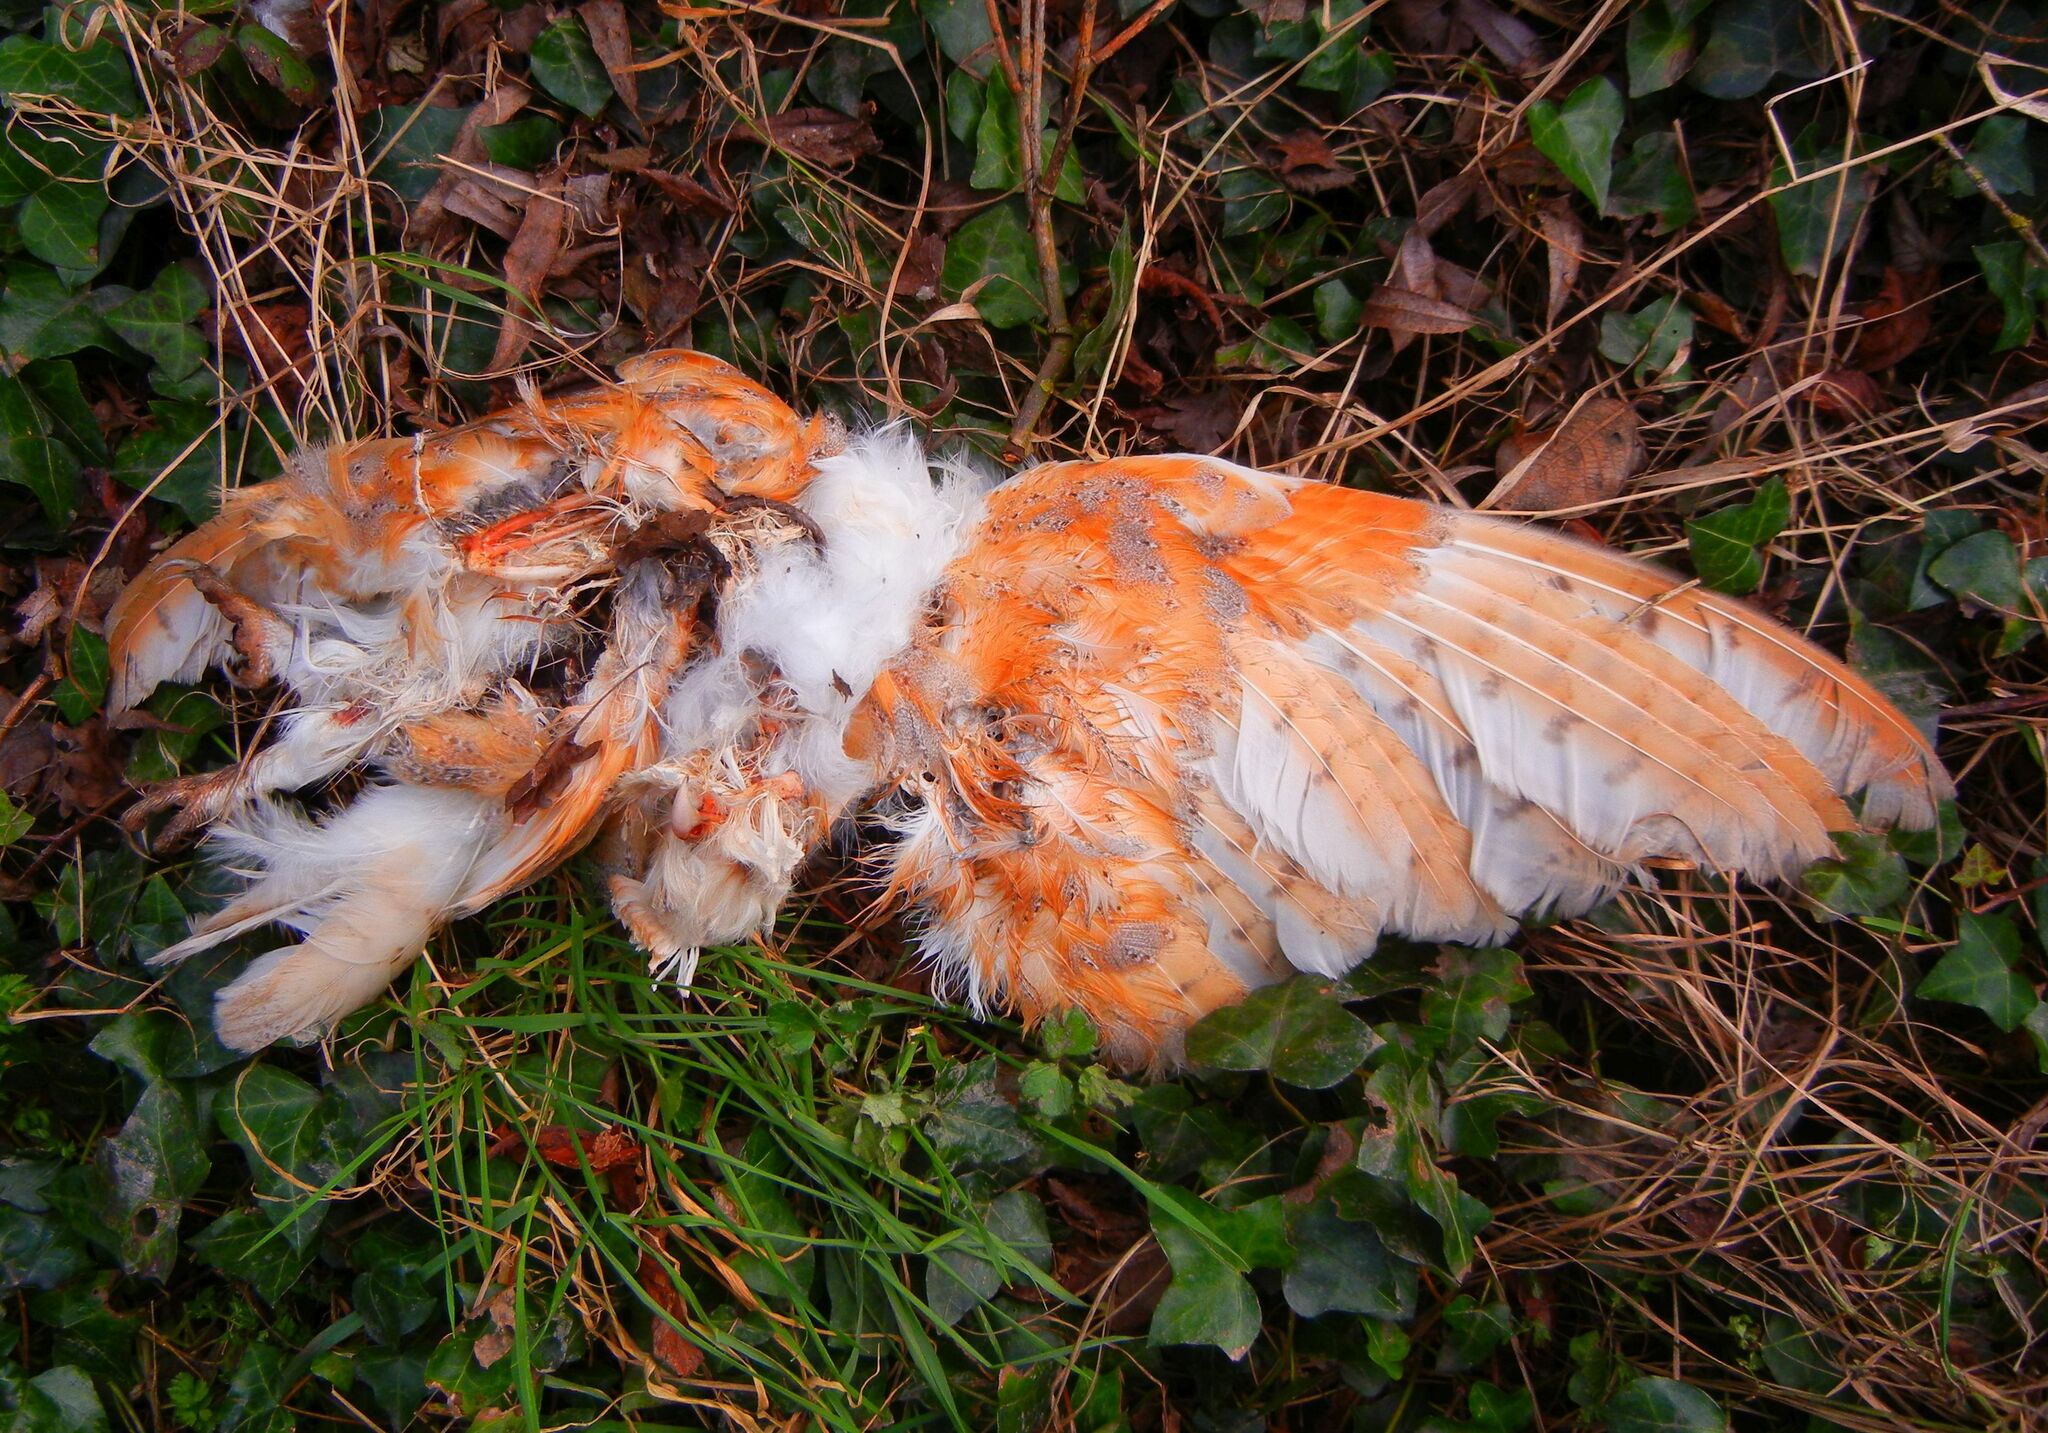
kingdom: Animalia
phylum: Chordata
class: Aves
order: Strigiformes
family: Tytonidae
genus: Tyto
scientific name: Tyto alba
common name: Barn owl
